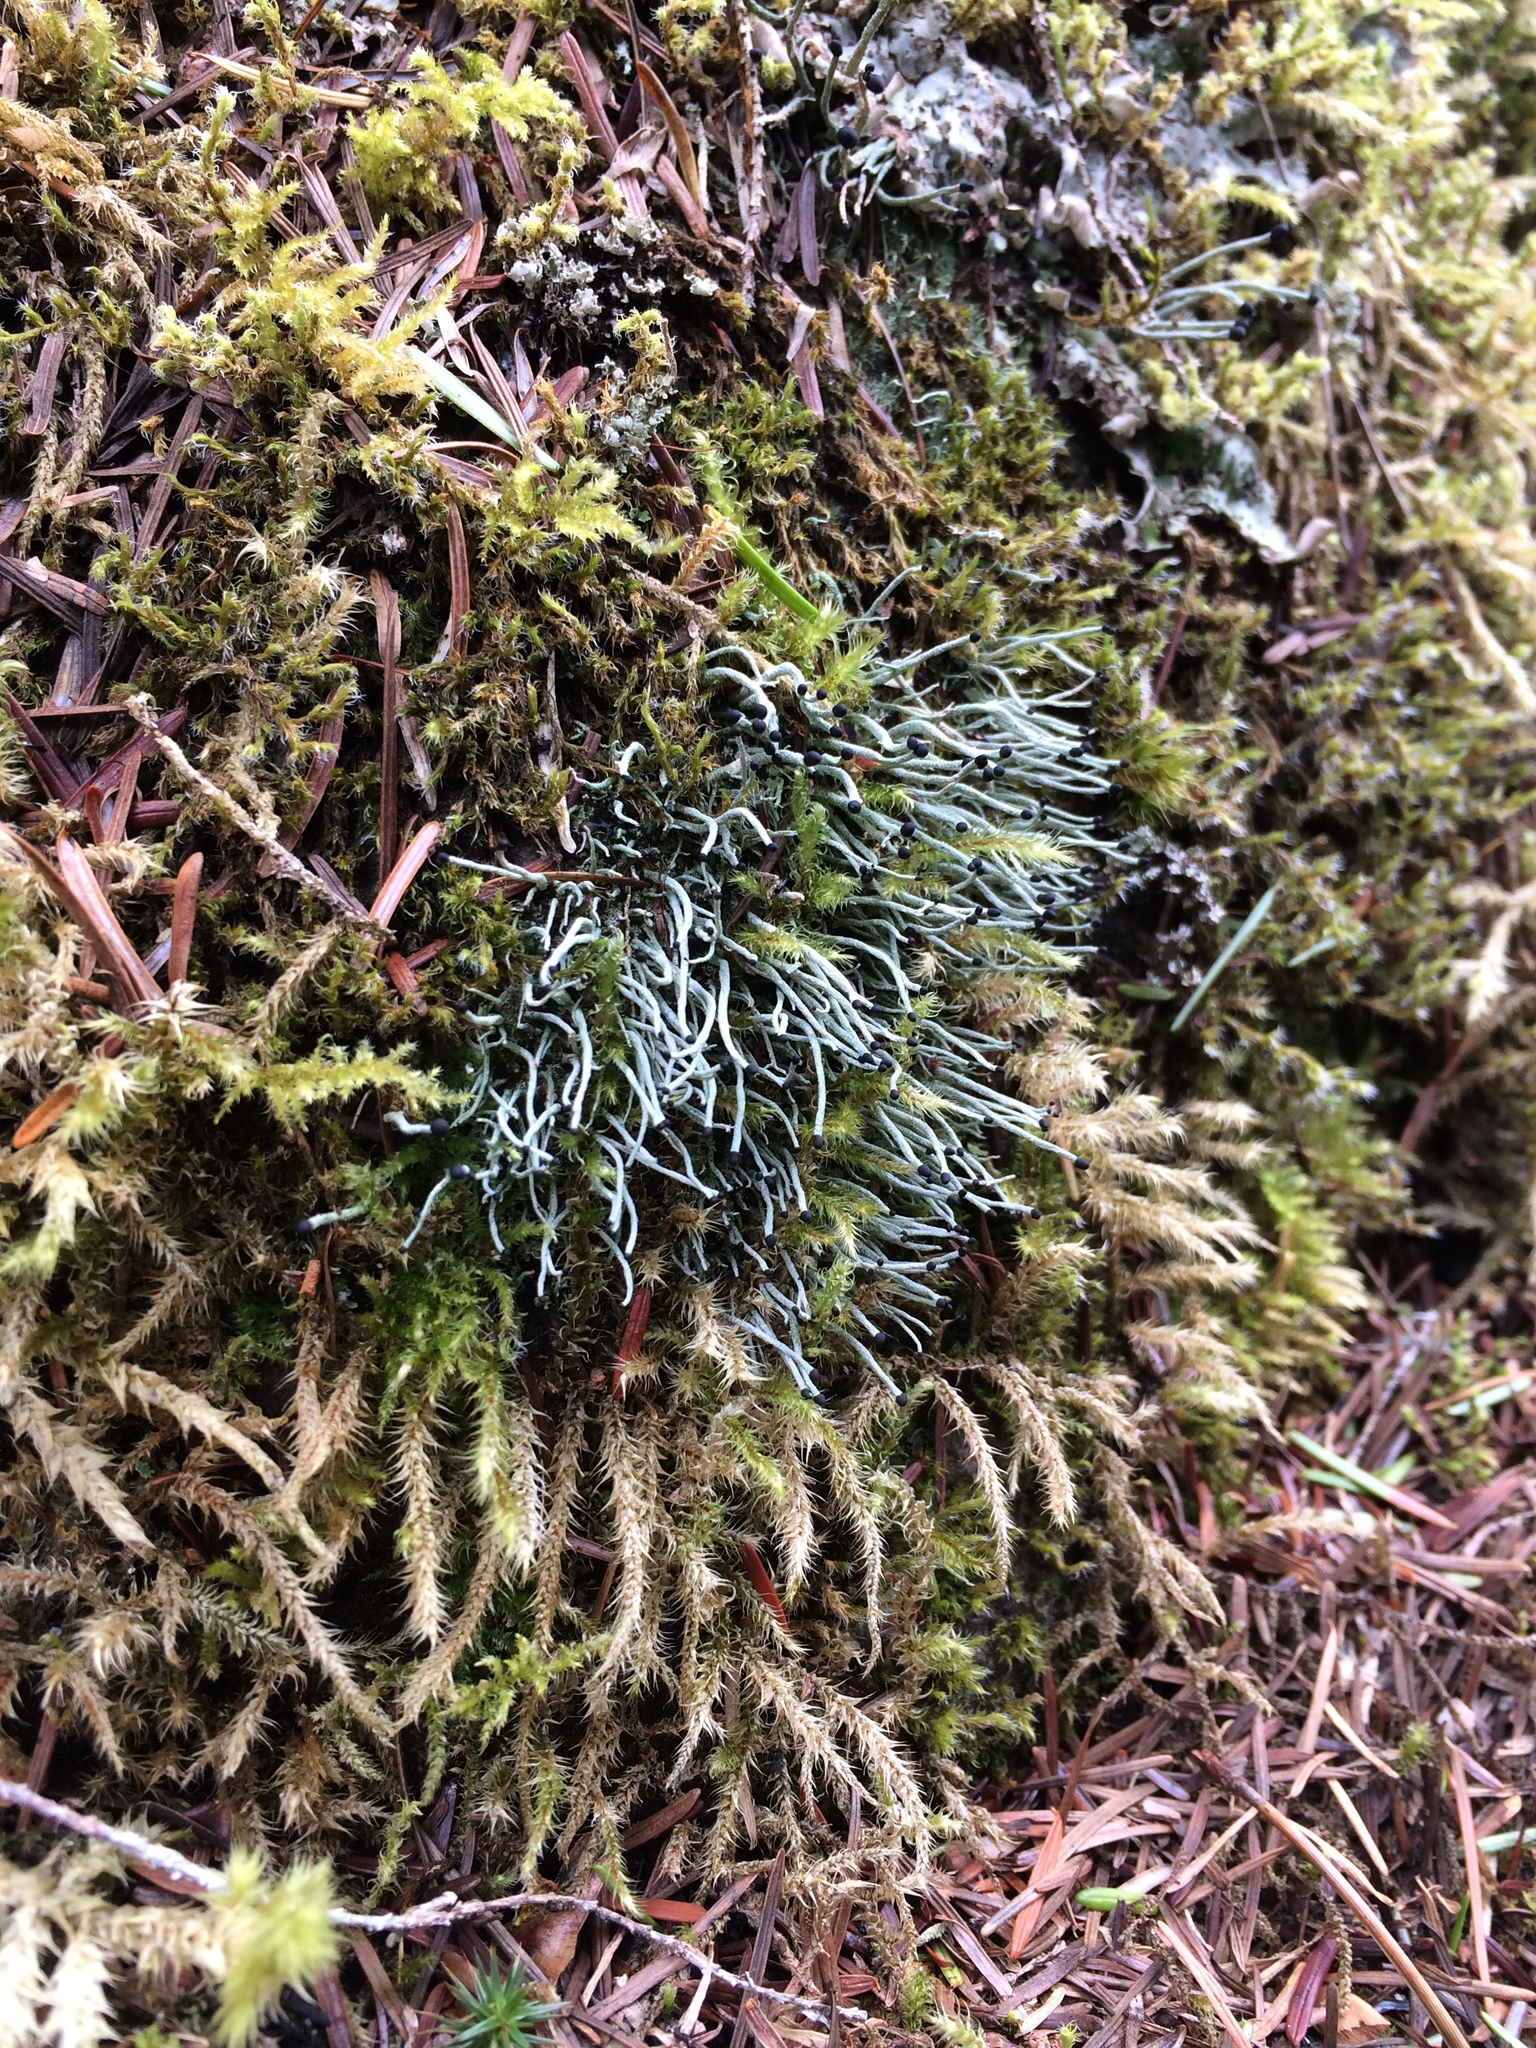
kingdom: Fungi
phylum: Ascomycota
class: Lecanoromycetes
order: Lecanorales
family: Cladoniaceae
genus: Pilophorus
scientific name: Pilophorus acicularis
